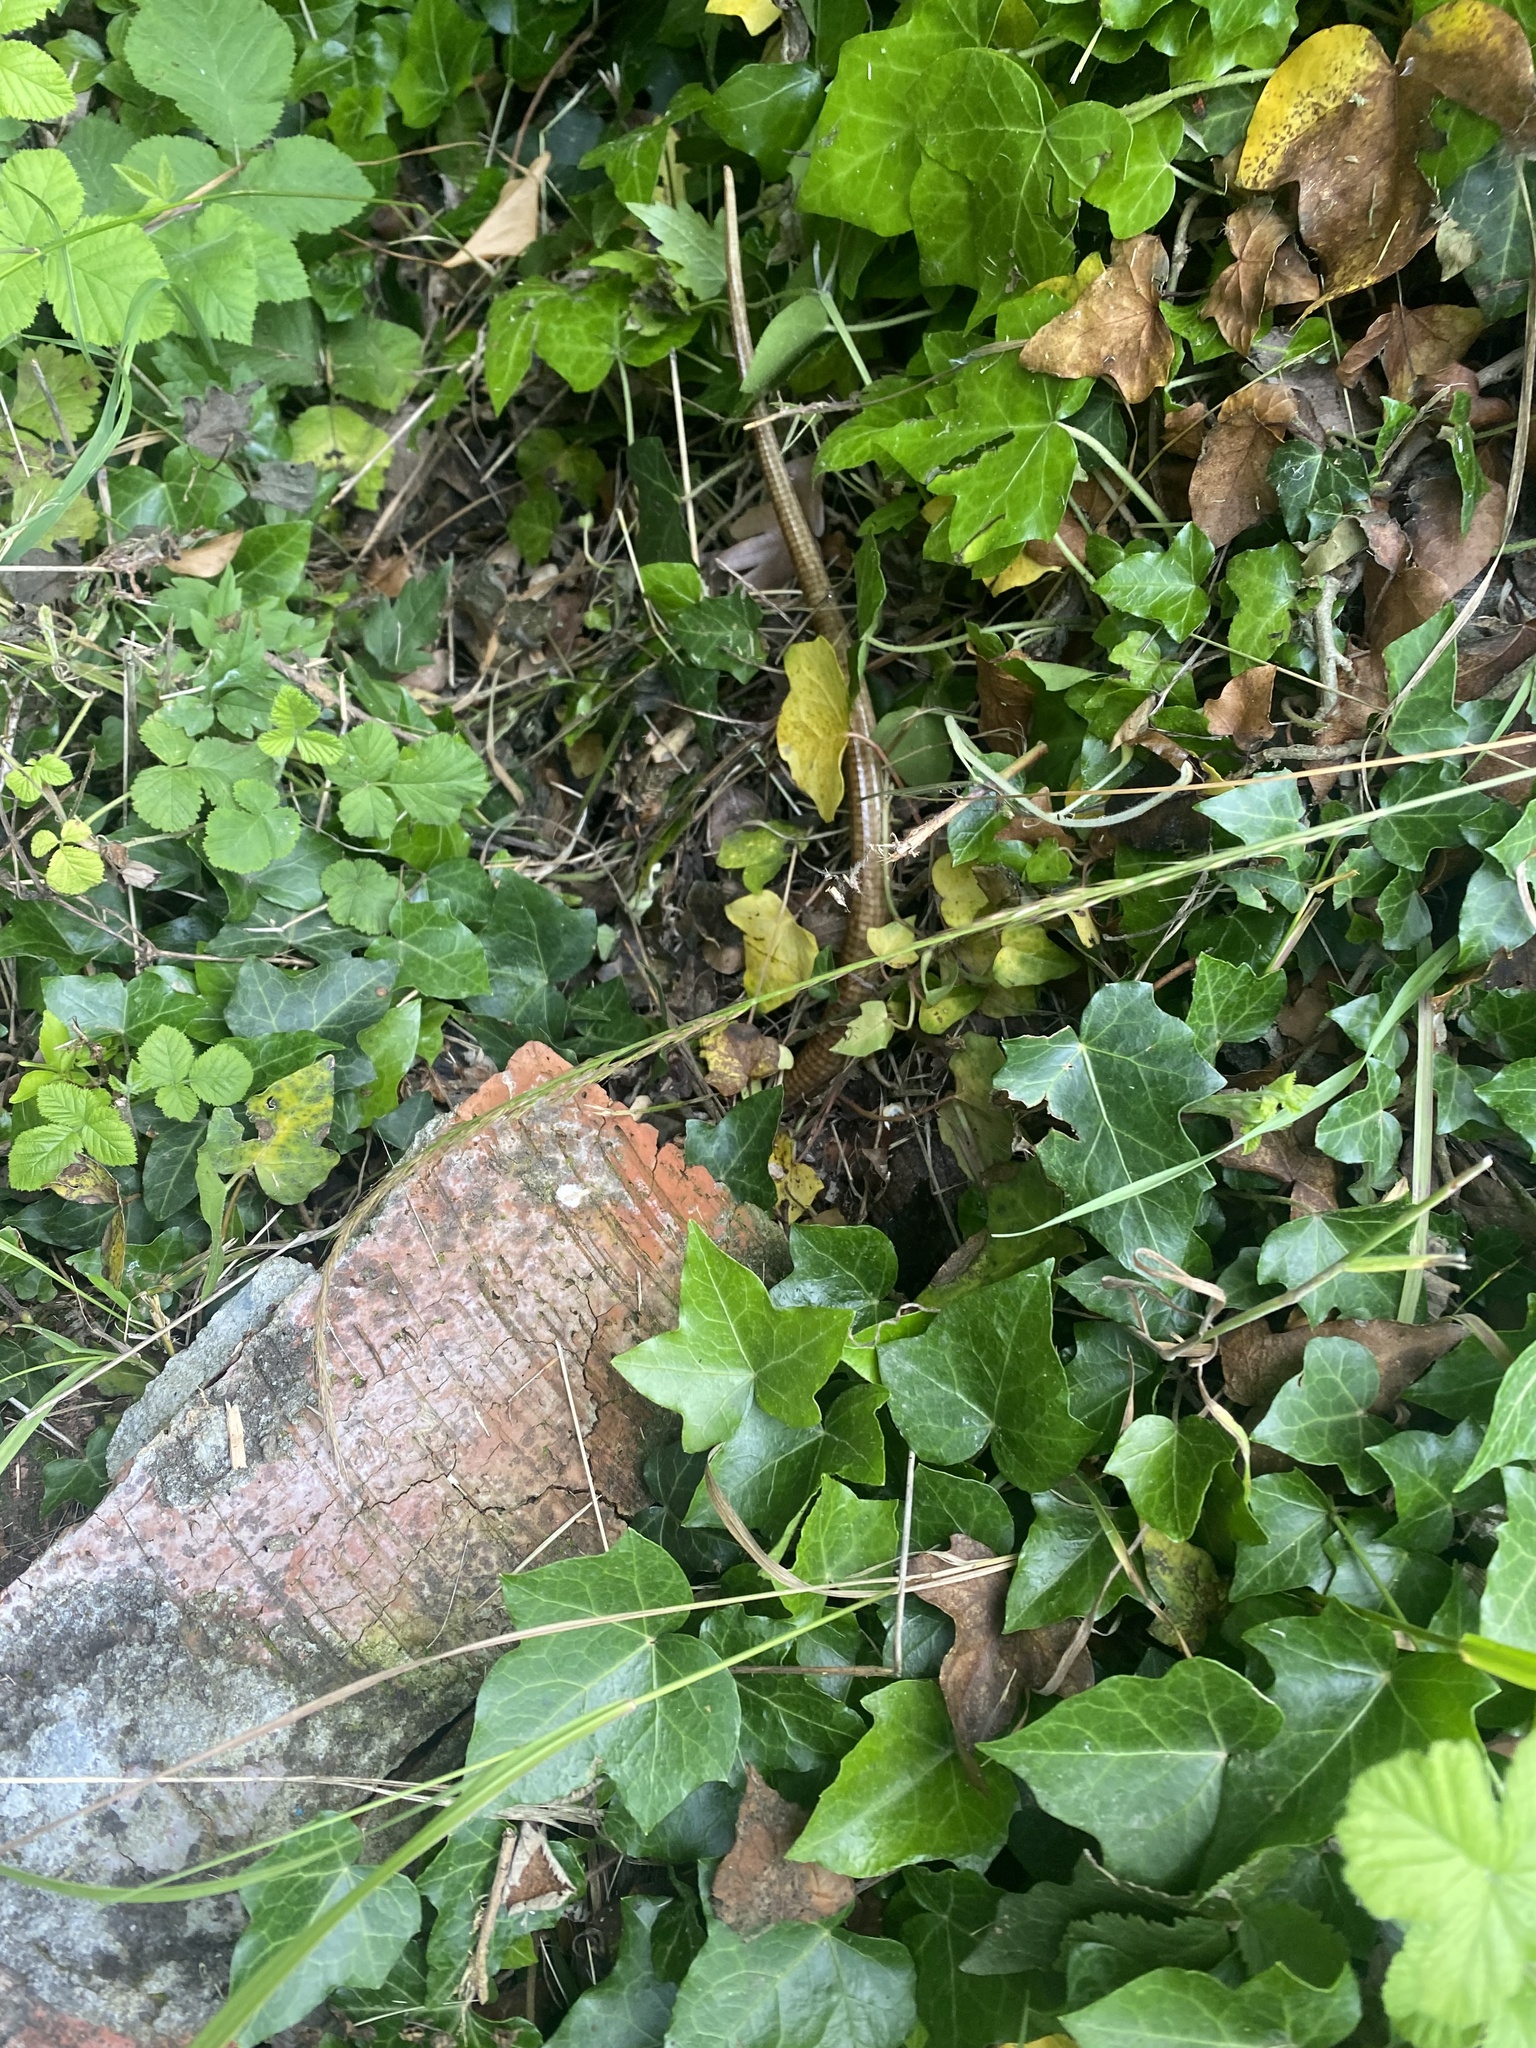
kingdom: Animalia
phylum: Chordata
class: Squamata
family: Anguidae
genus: Pseudopus
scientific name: Pseudopus apodus
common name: European glass lizard
